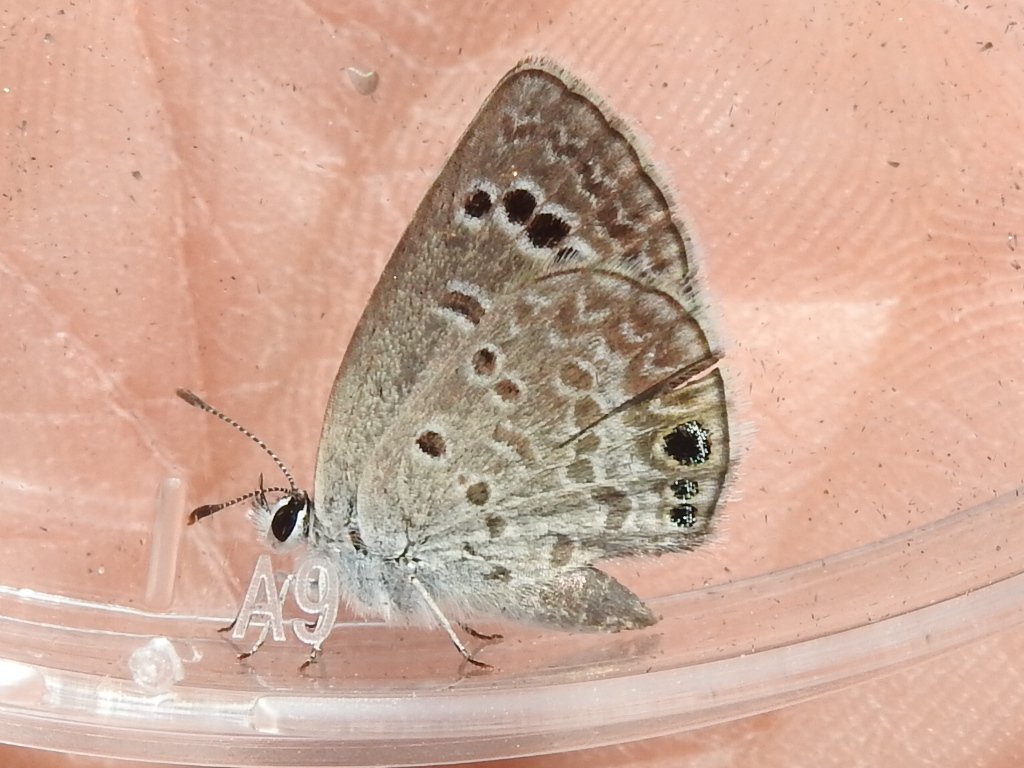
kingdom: Animalia
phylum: Arthropoda
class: Insecta
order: Lepidoptera
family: Lycaenidae
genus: Echinargus
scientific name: Echinargus isola
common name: Reakirt's blue
